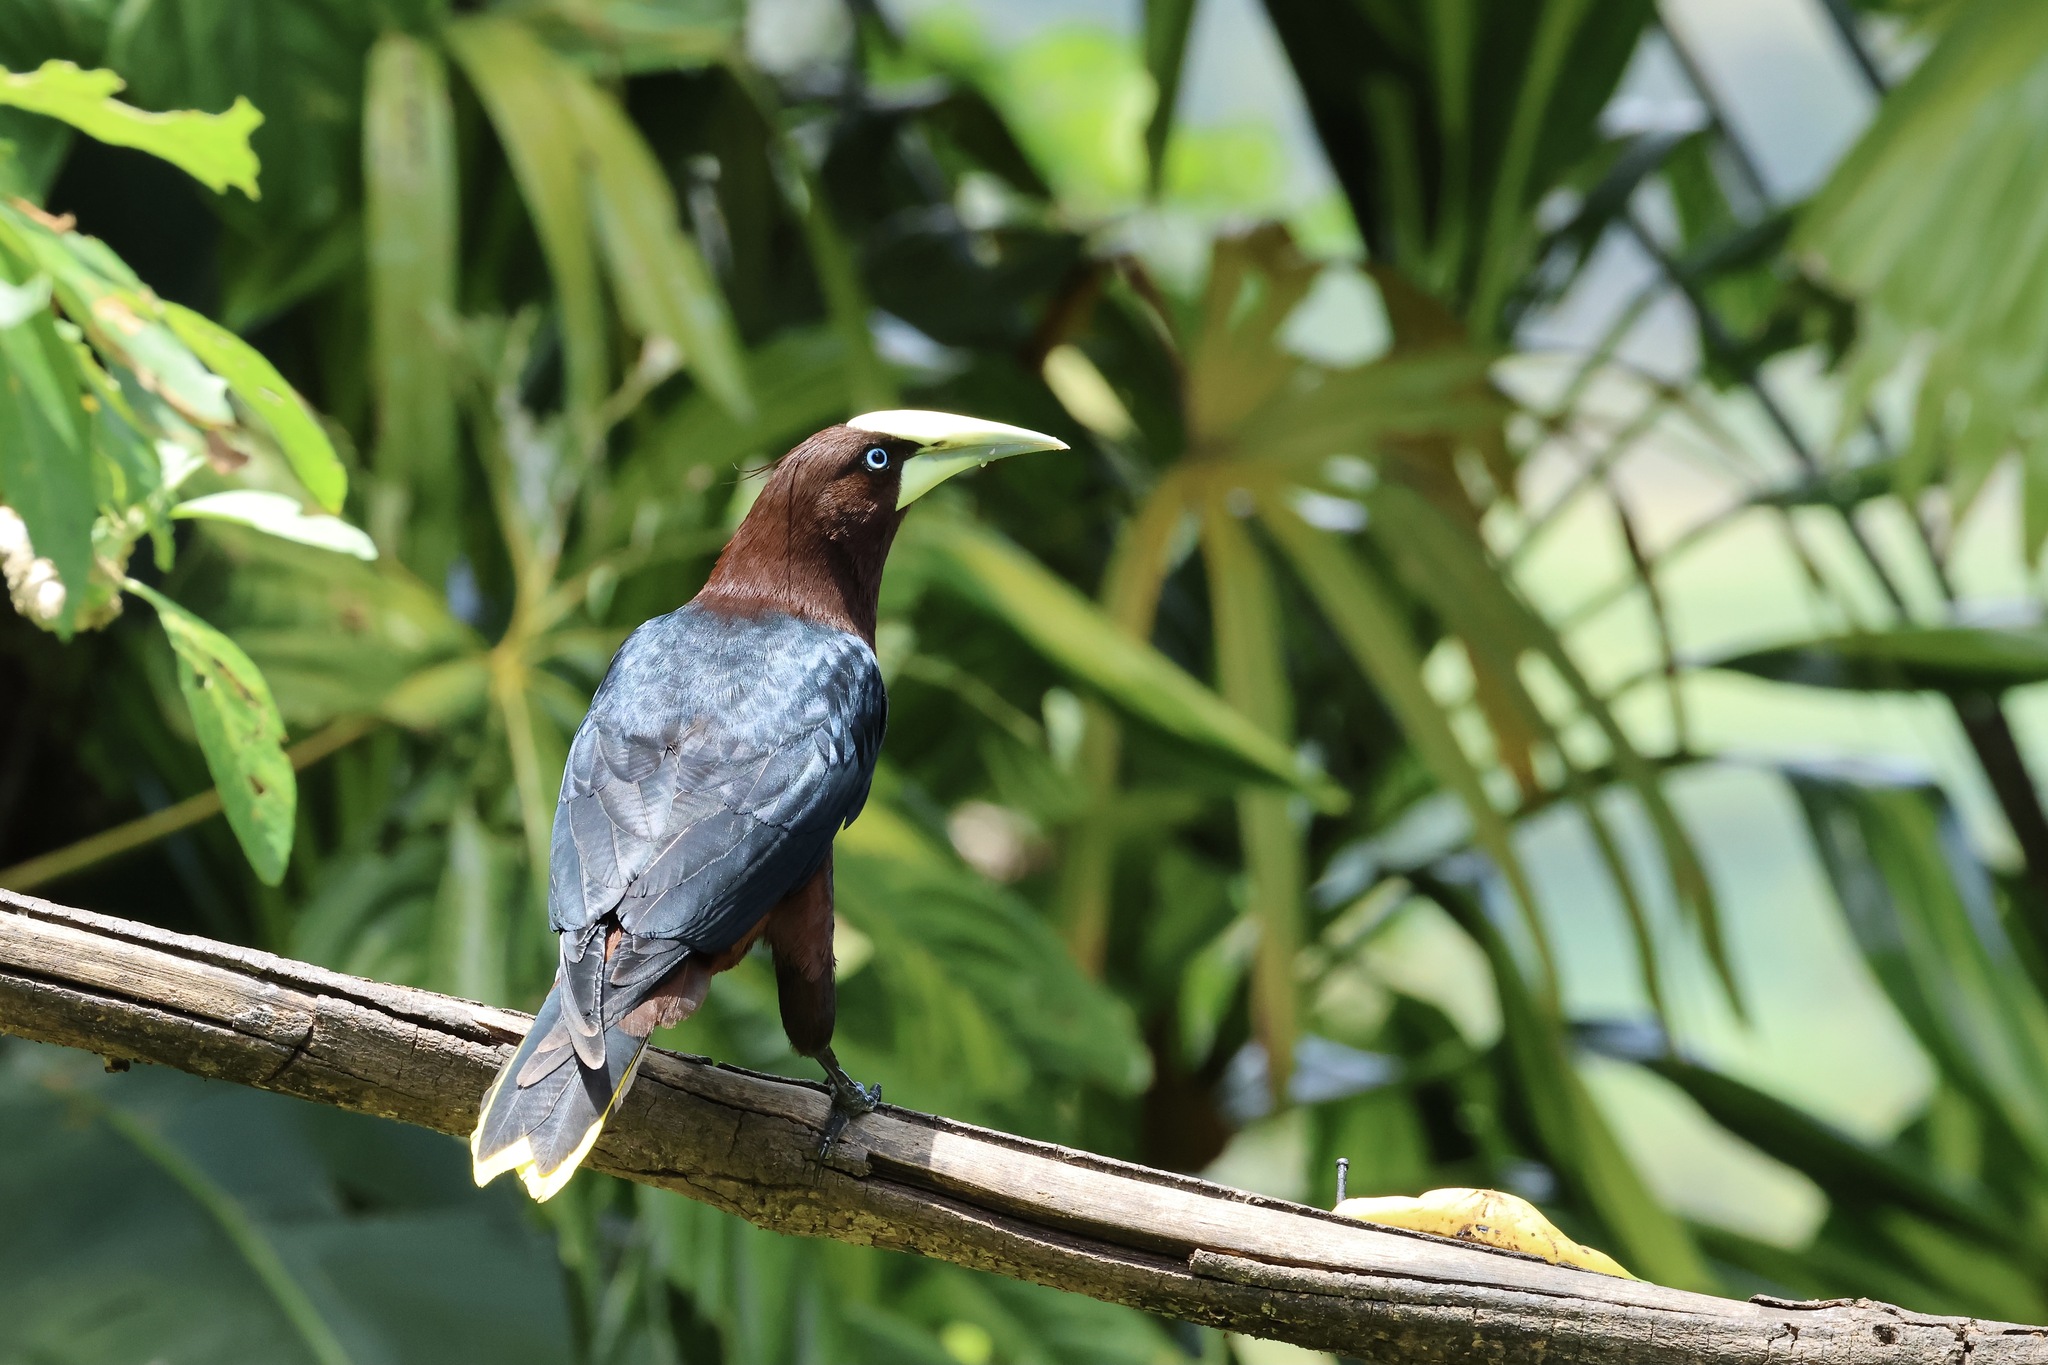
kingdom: Animalia
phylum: Chordata
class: Aves
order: Passeriformes
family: Icteridae
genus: Psarocolius
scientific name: Psarocolius wagleri
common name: Chestnut-headed oropendola
